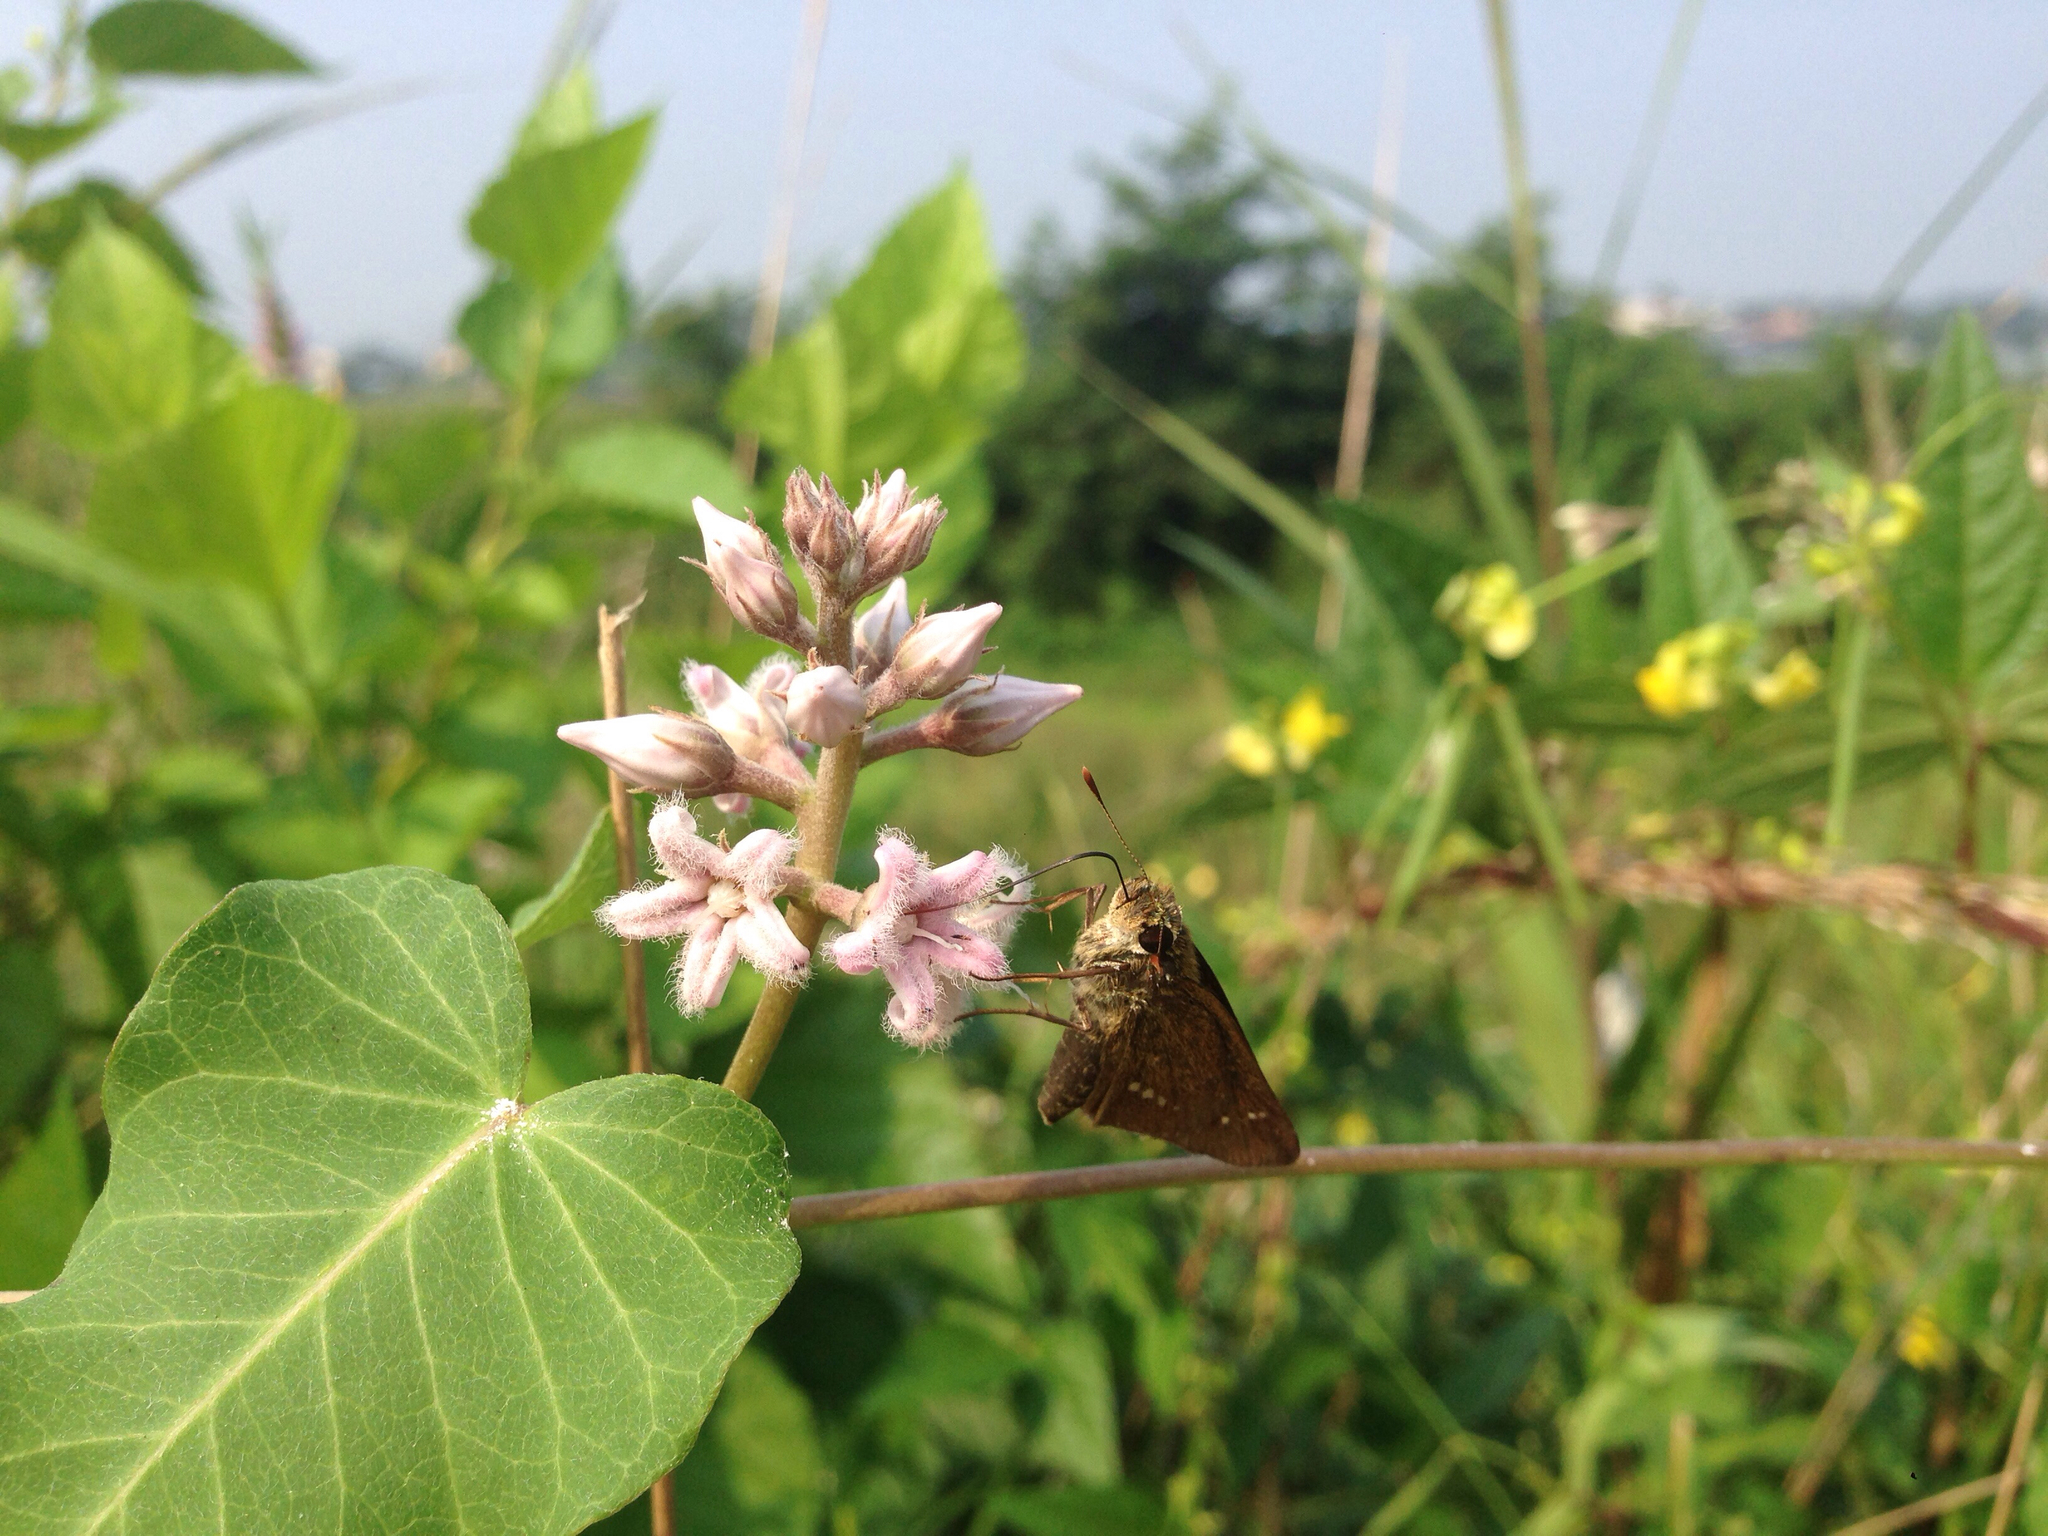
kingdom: Animalia
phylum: Arthropoda
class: Insecta
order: Lepidoptera
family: Hesperiidae
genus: Parnara
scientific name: Parnara guttatus
